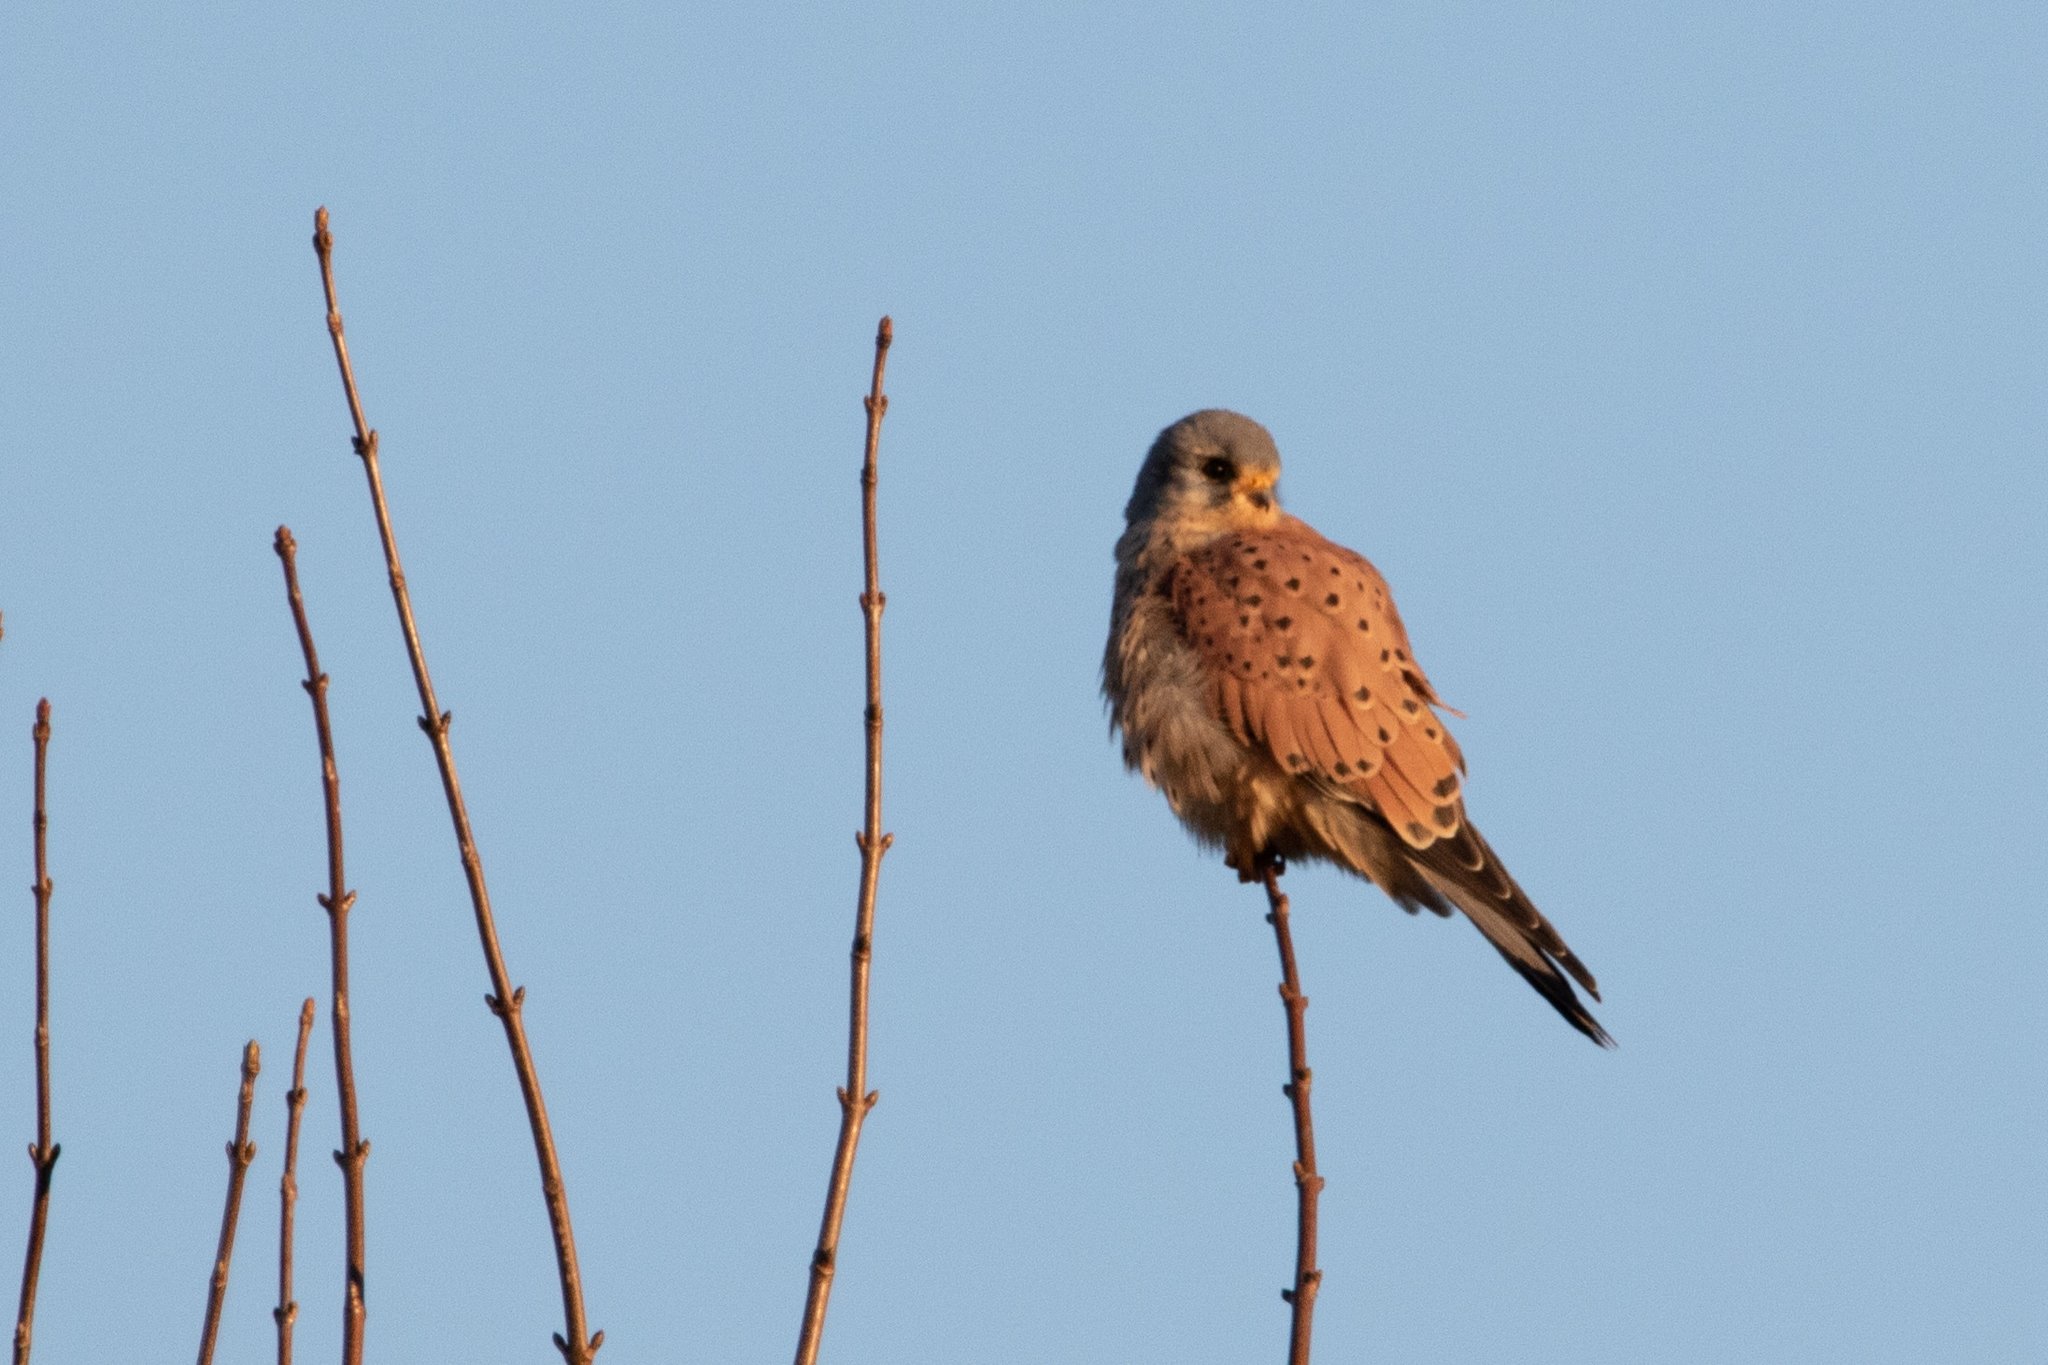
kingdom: Animalia
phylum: Chordata
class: Aves
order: Falconiformes
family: Falconidae
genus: Falco
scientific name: Falco tinnunculus
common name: Common kestrel
